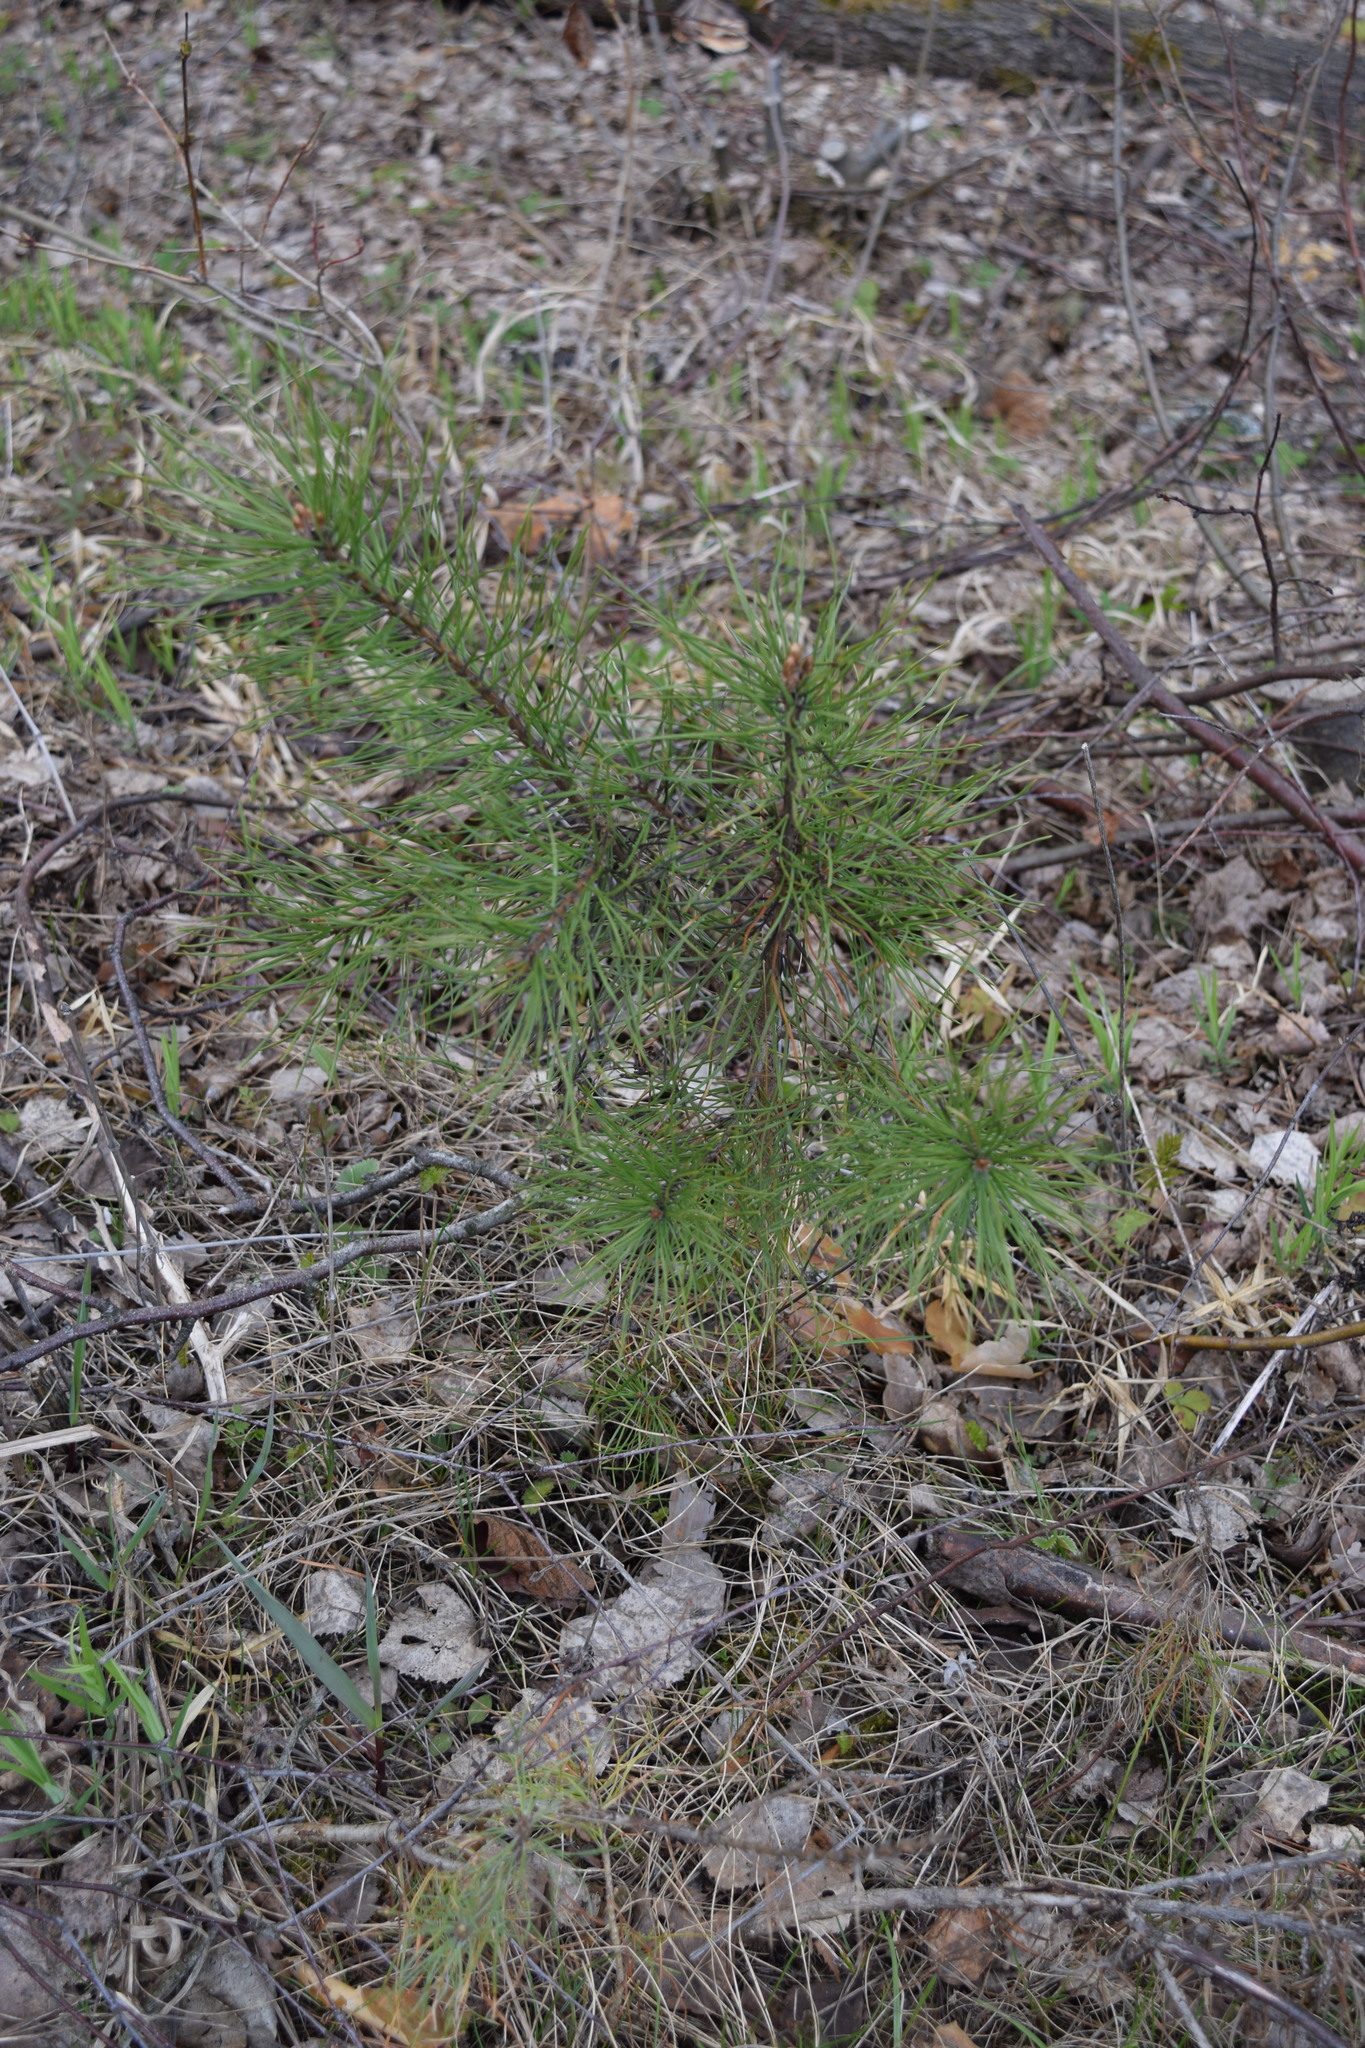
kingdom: Plantae
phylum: Tracheophyta
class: Pinopsida
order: Pinales
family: Pinaceae
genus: Pinus
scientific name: Pinus sylvestris
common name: Scots pine
